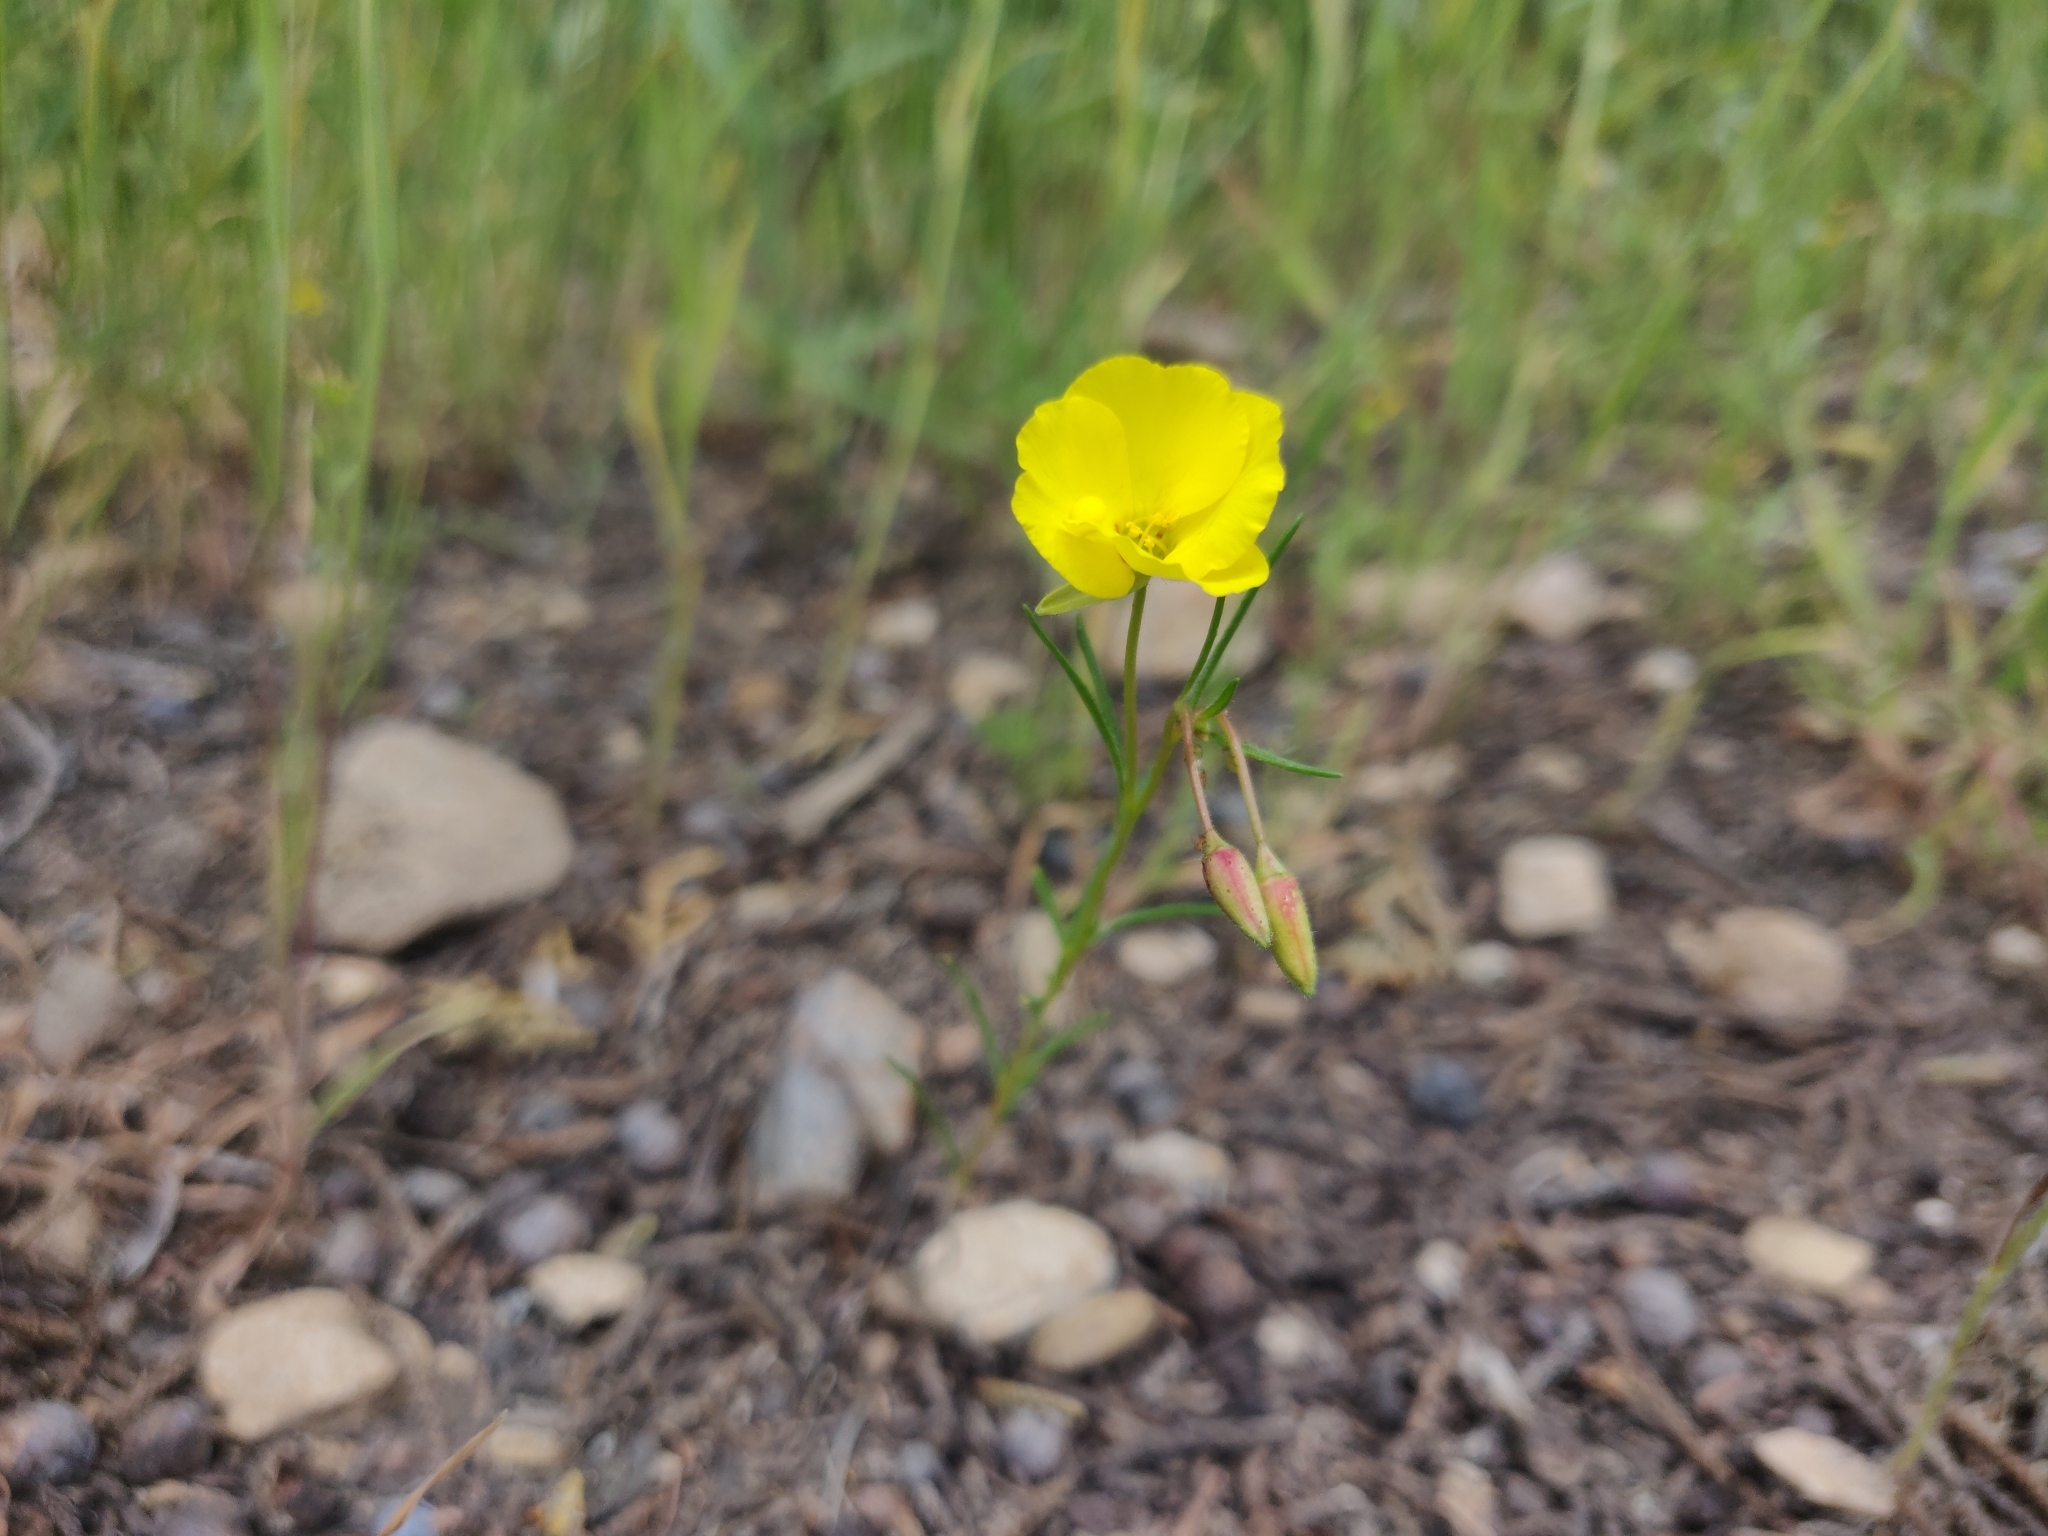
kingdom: Plantae
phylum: Tracheophyta
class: Magnoliopsida
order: Myrtales
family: Onagraceae
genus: Camissonia
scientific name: Camissonia campestris
